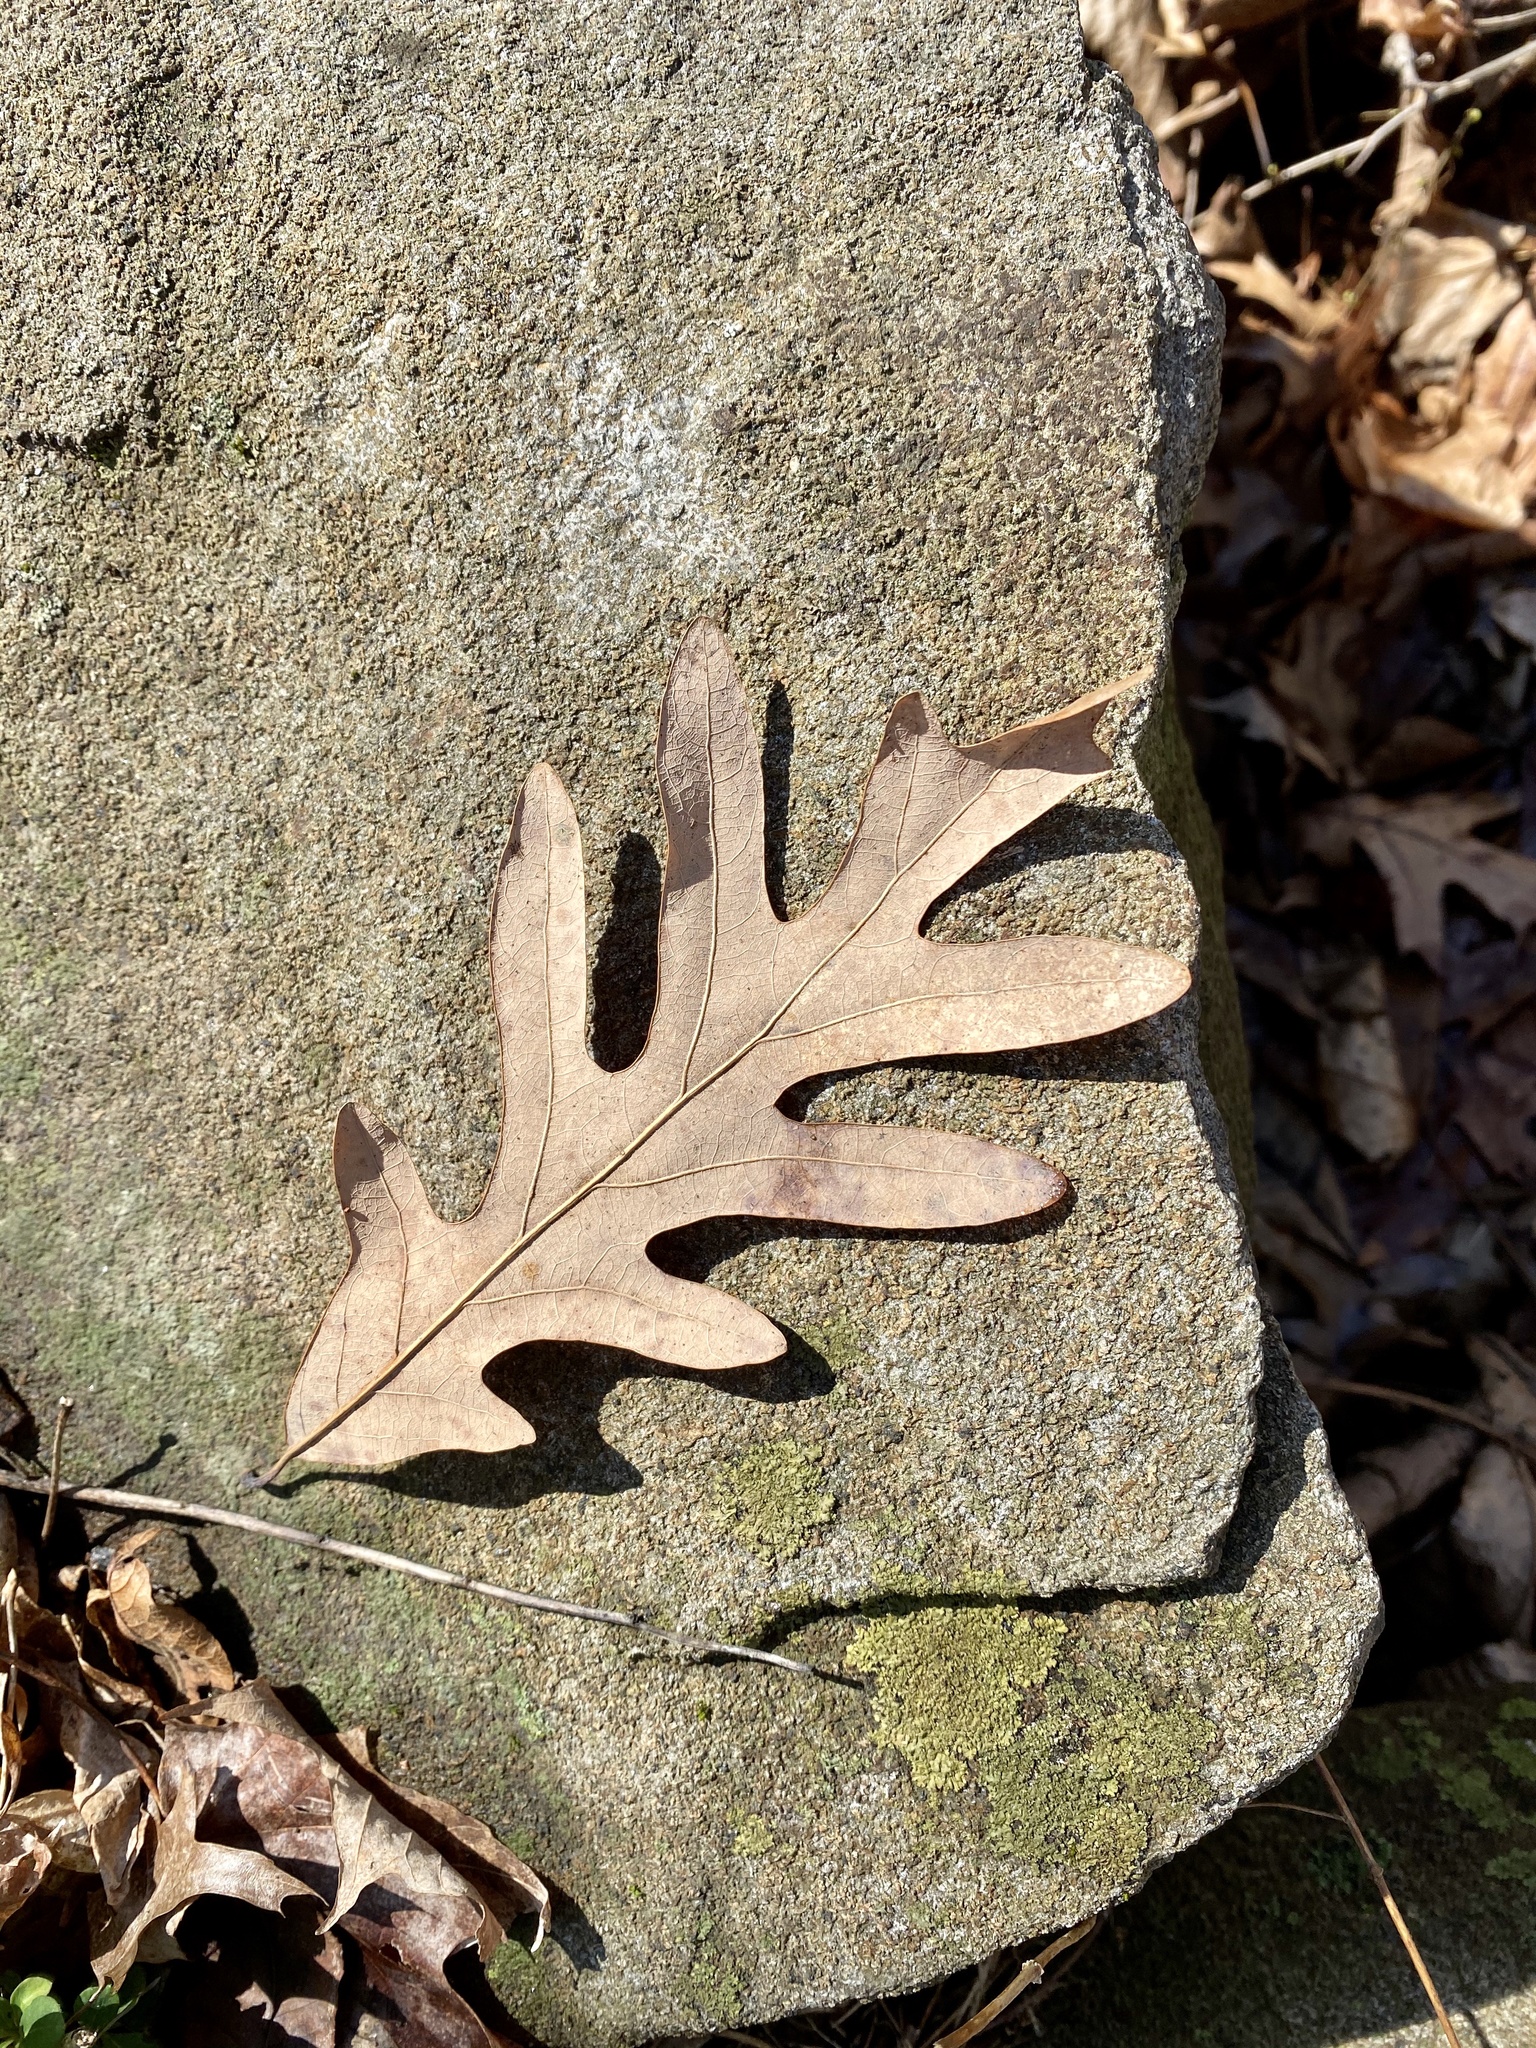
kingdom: Plantae
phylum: Tracheophyta
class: Magnoliopsida
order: Fagales
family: Fagaceae
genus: Quercus
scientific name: Quercus alba
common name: White oak
